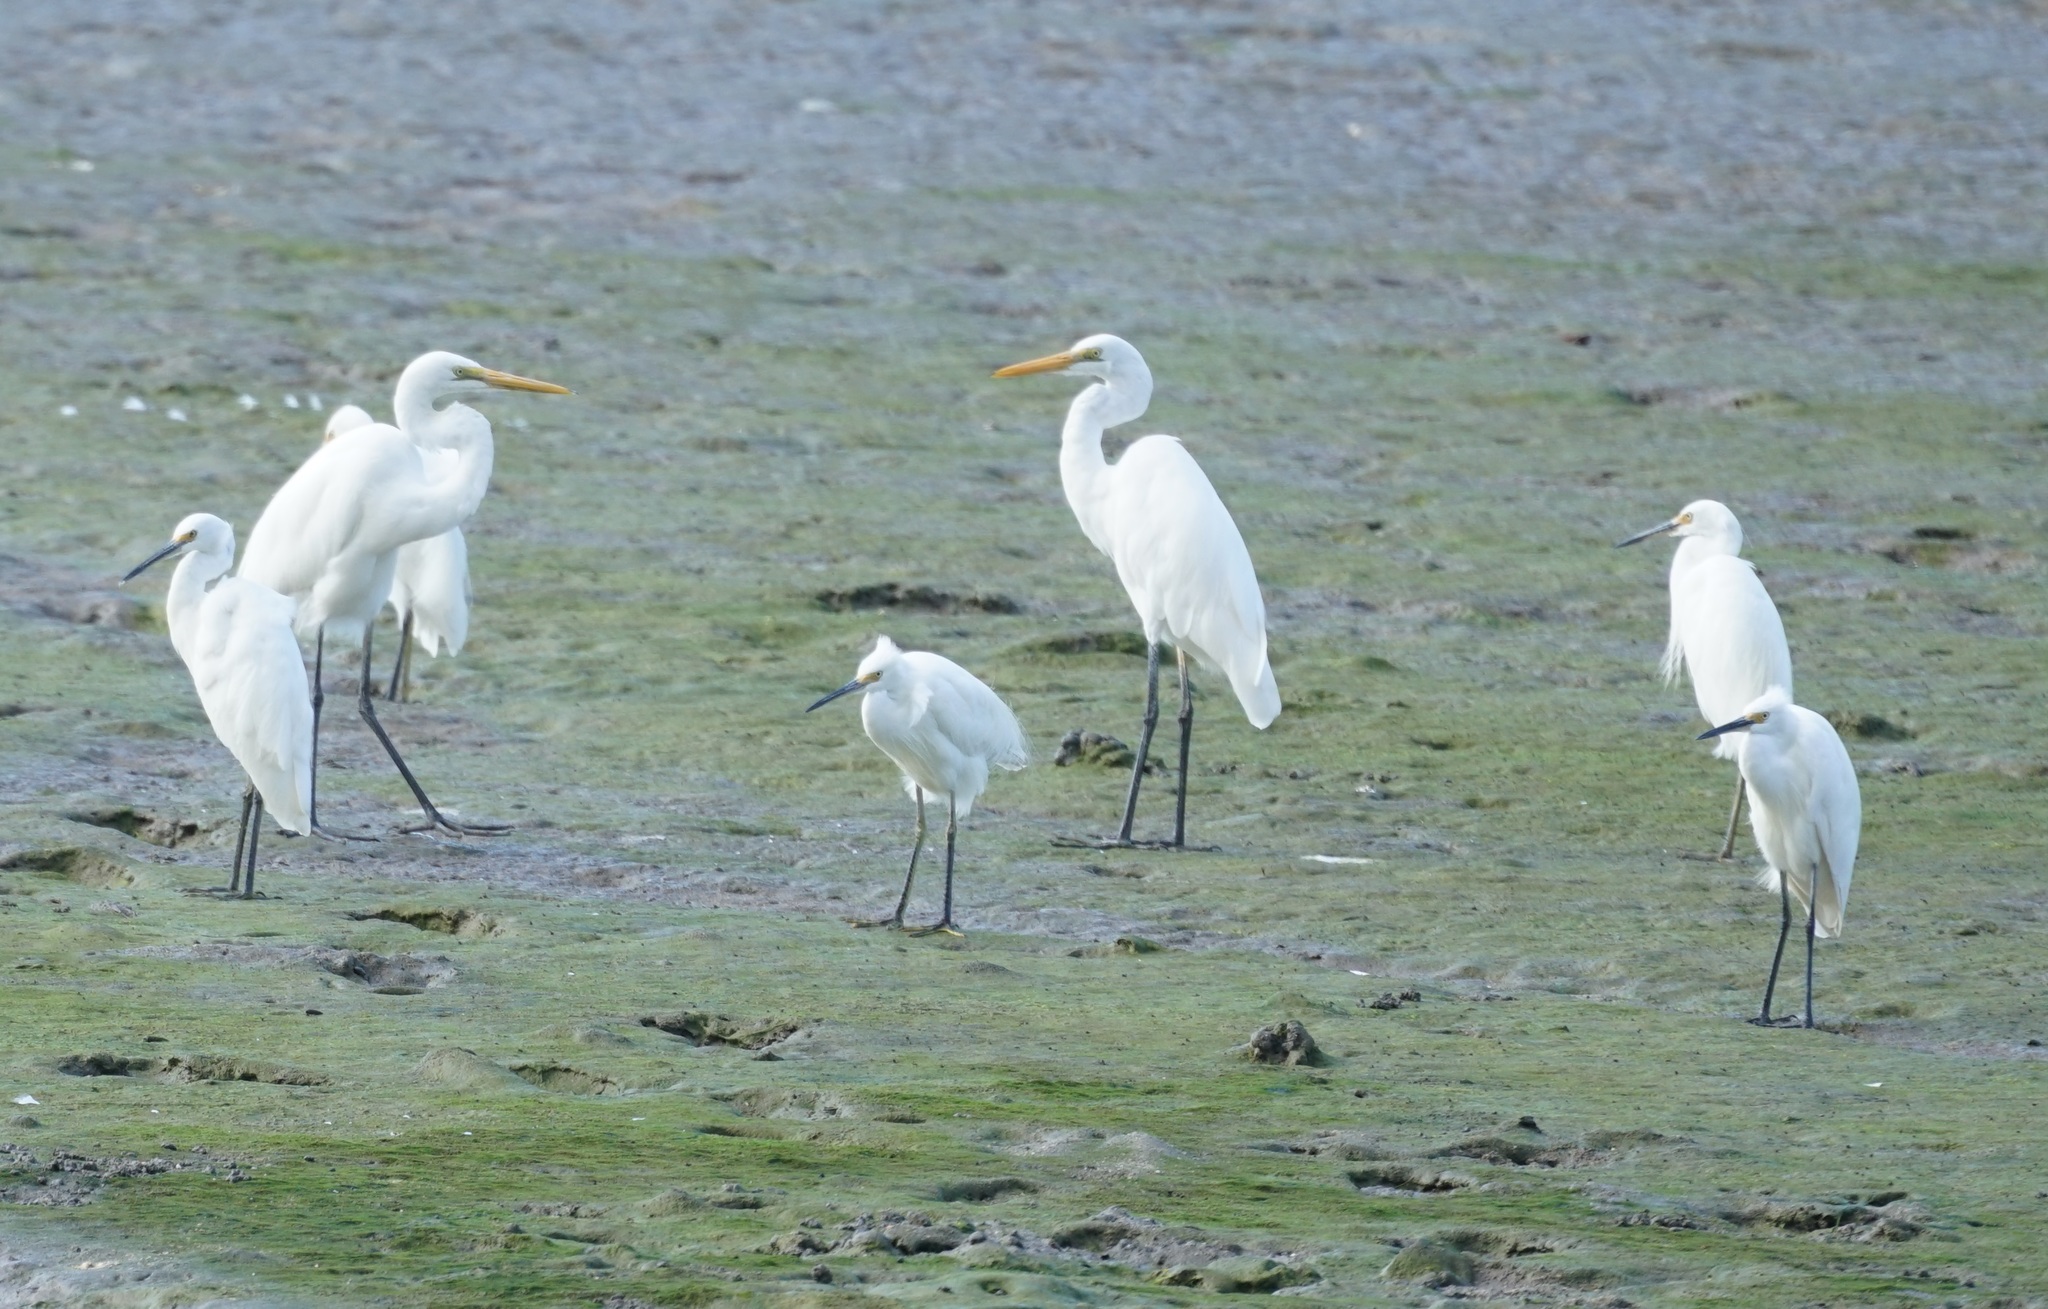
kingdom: Animalia
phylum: Chordata
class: Aves
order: Pelecaniformes
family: Ardeidae
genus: Egretta
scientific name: Egretta garzetta
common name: Little egret
